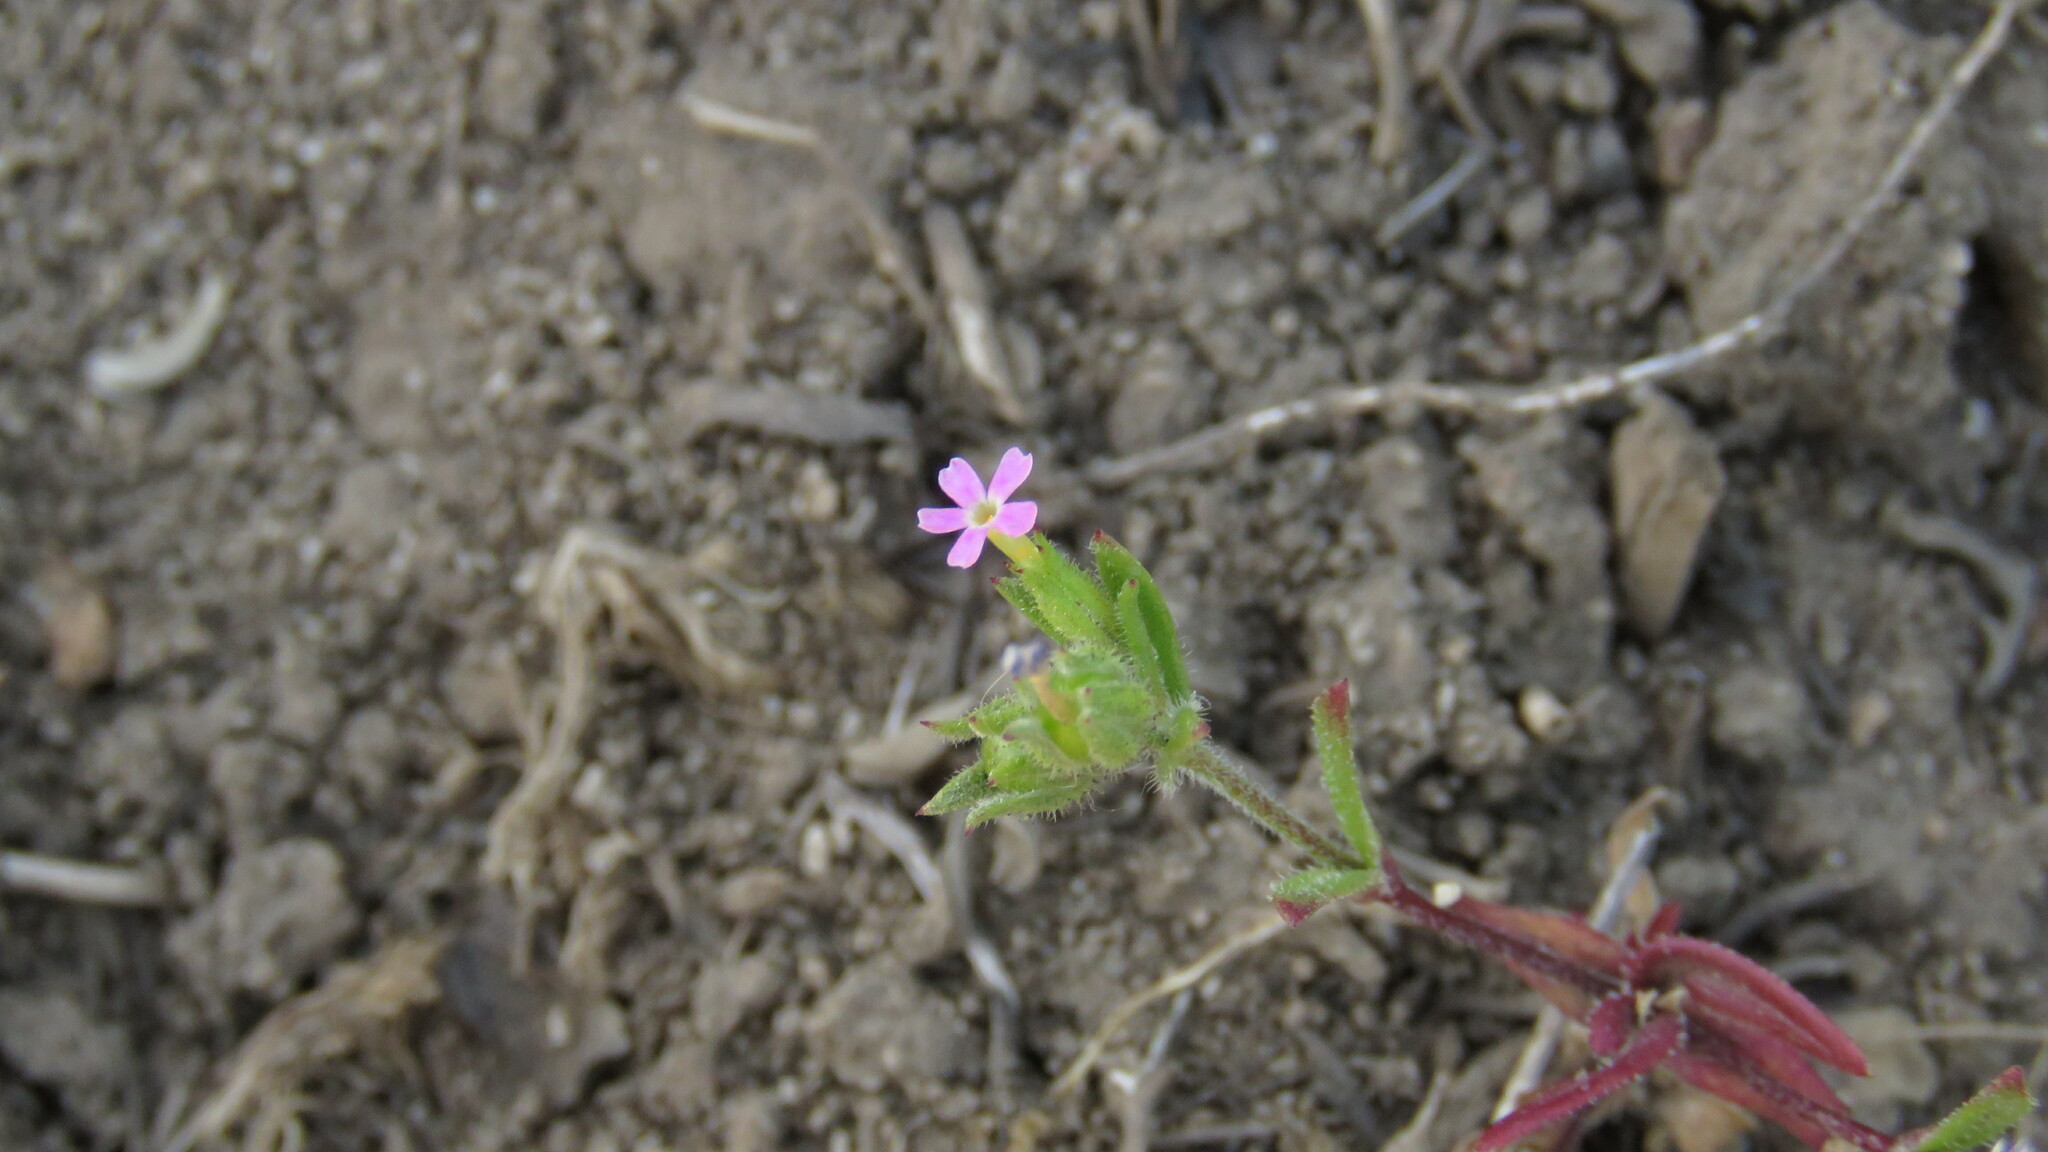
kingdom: Plantae
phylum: Tracheophyta
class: Magnoliopsida
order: Ericales
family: Polemoniaceae
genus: Phlox
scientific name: Phlox gracilis
